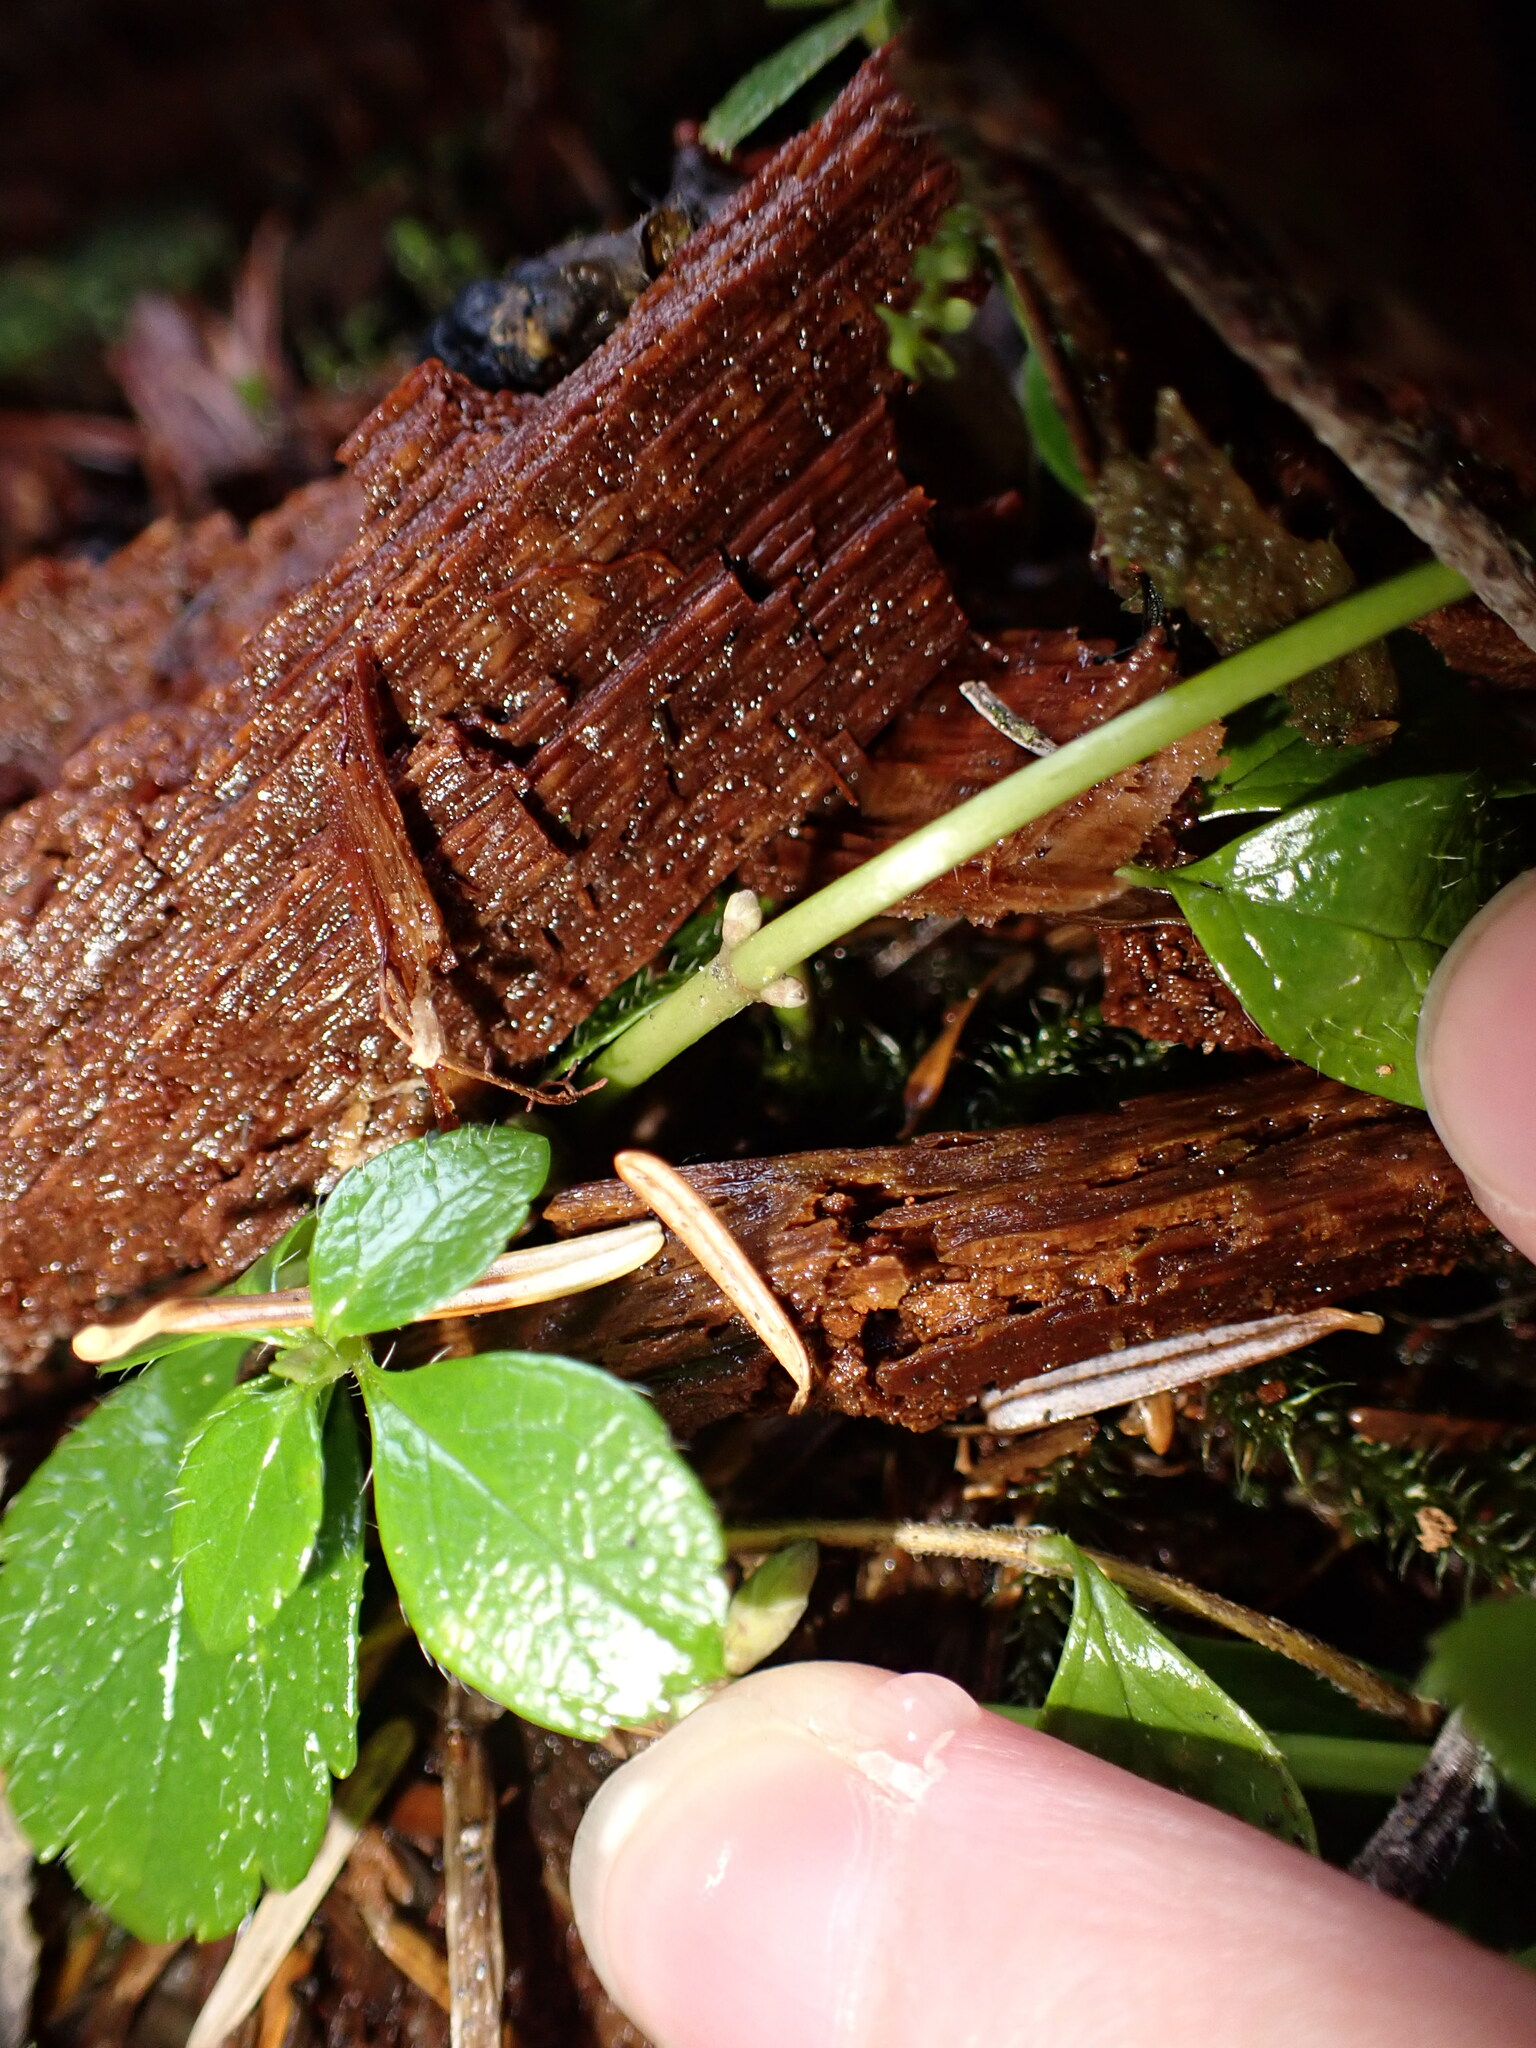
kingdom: Plantae
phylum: Tracheophyta
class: Magnoliopsida
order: Cornales
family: Cornaceae
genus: Cornus
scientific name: Cornus unalaschkensis
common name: Alaska bunchberry
